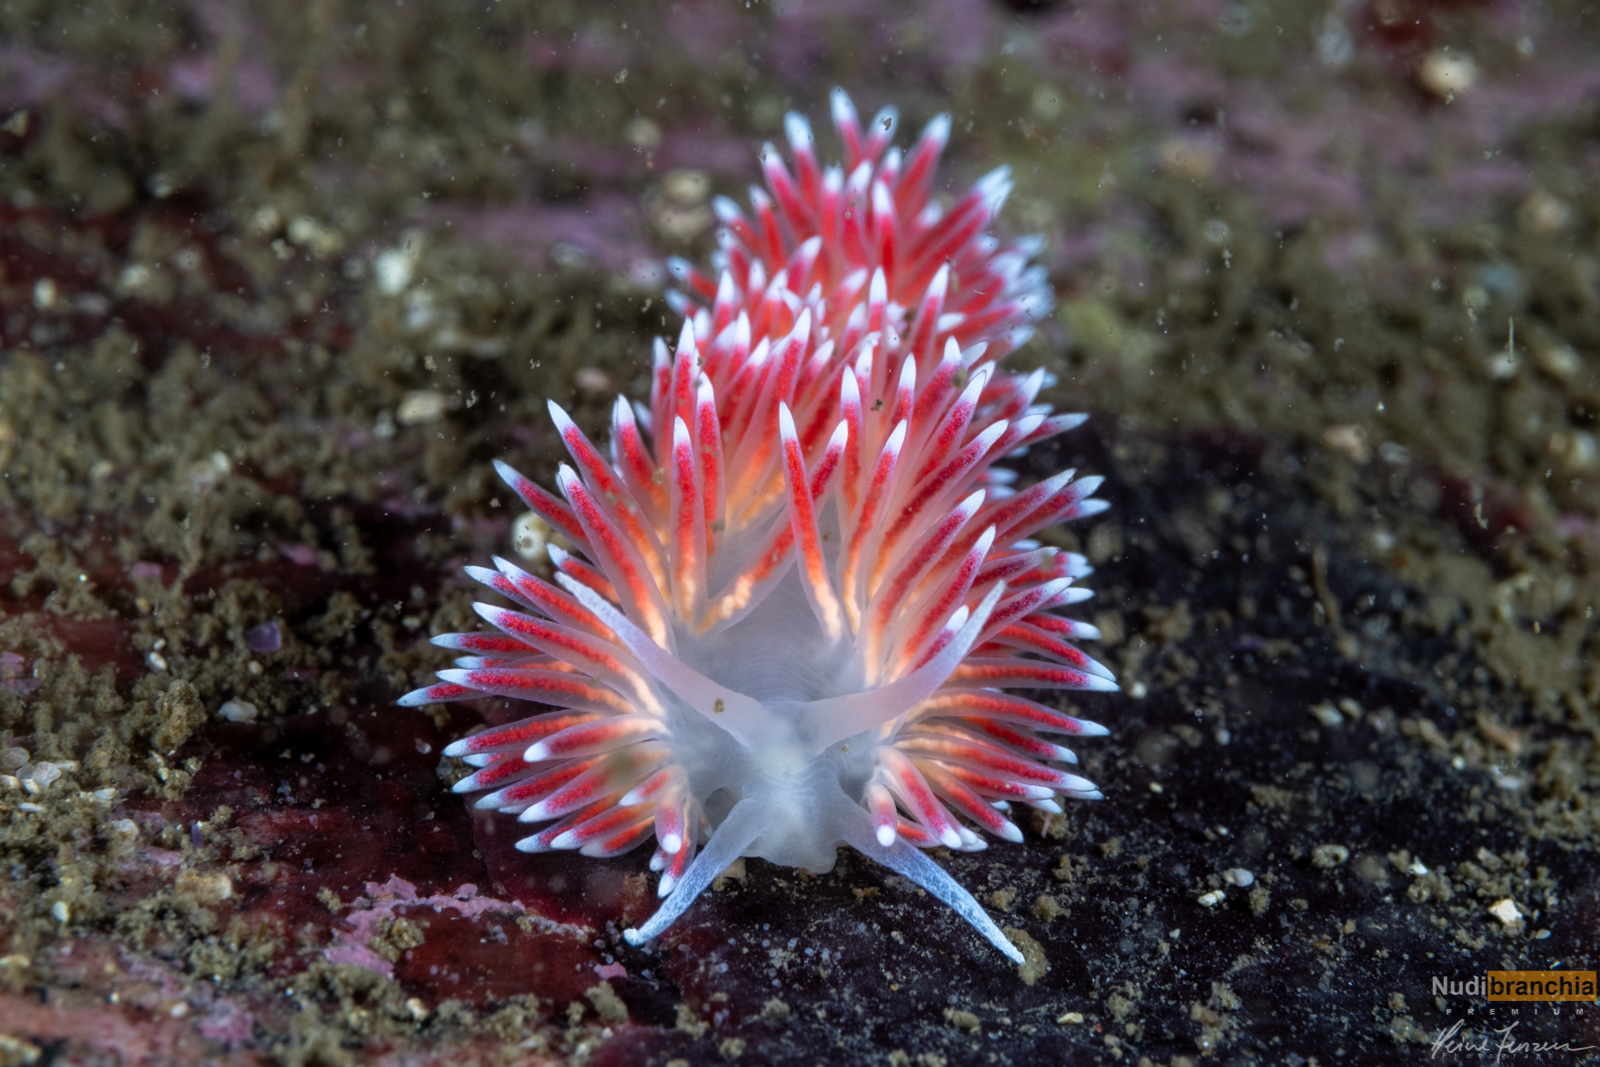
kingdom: Animalia
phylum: Mollusca
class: Gastropoda
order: Nudibranchia
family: Flabellinidae
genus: Carronella
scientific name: Carronella pellucida
